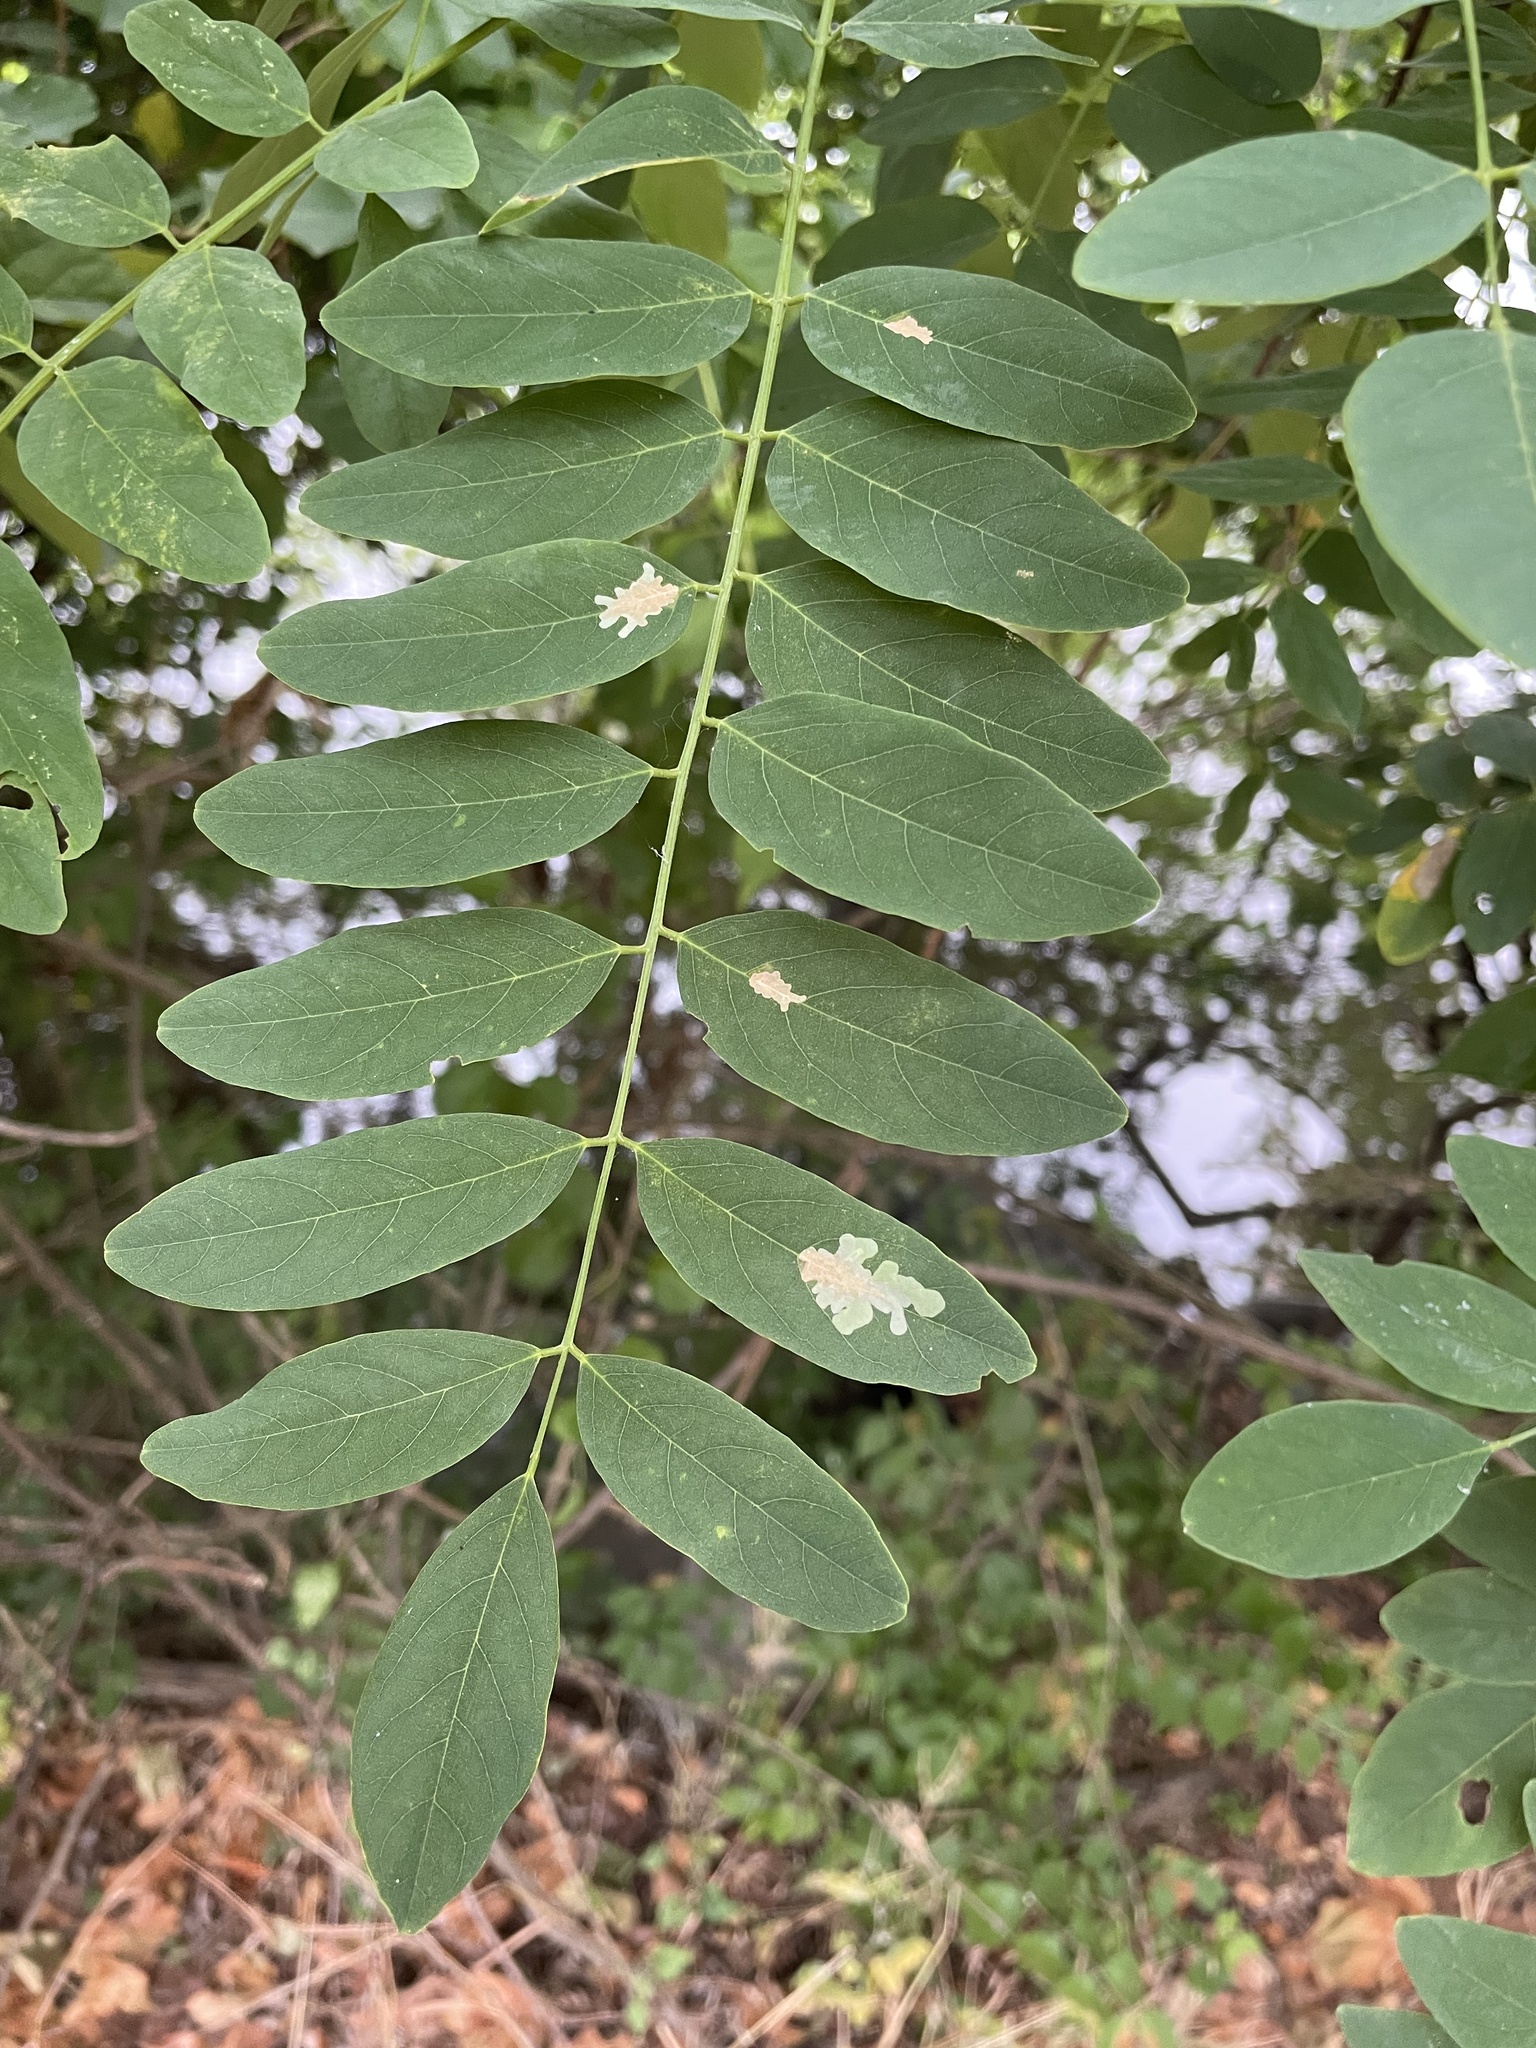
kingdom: Animalia
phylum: Arthropoda
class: Insecta
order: Lepidoptera
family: Gracillariidae
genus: Parectopa
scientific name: Parectopa robiniella
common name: Locust digitate leafminer
